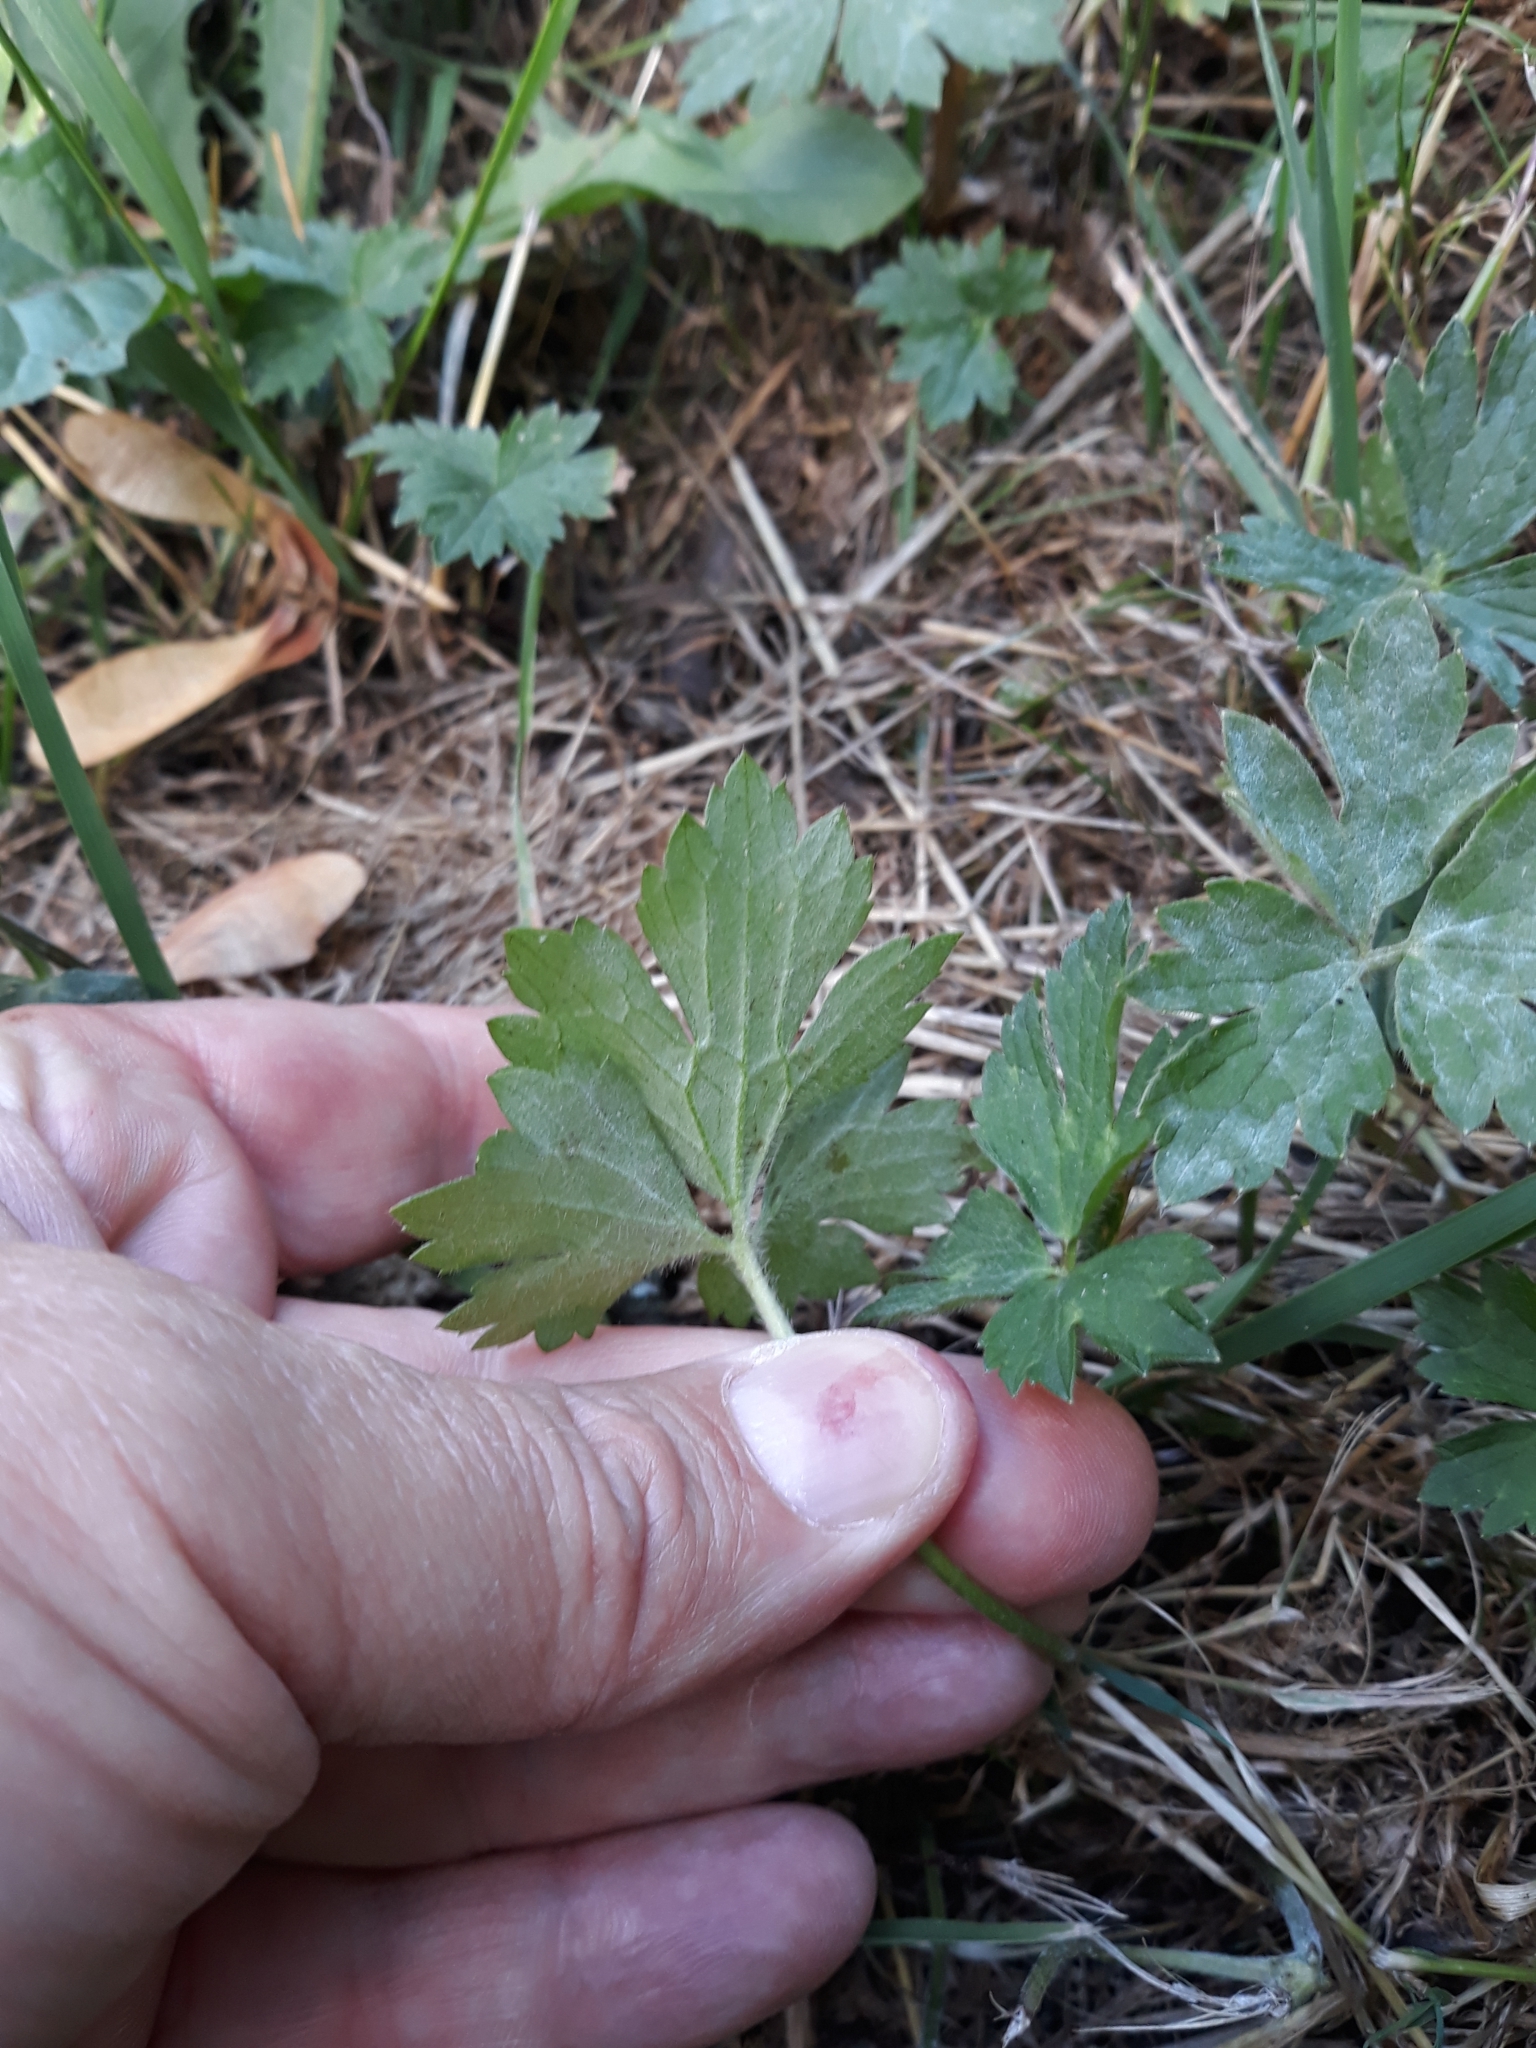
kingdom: Plantae
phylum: Tracheophyta
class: Magnoliopsida
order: Ranunculales
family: Ranunculaceae
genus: Ranunculus
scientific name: Ranunculus repens
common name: Creeping buttercup
